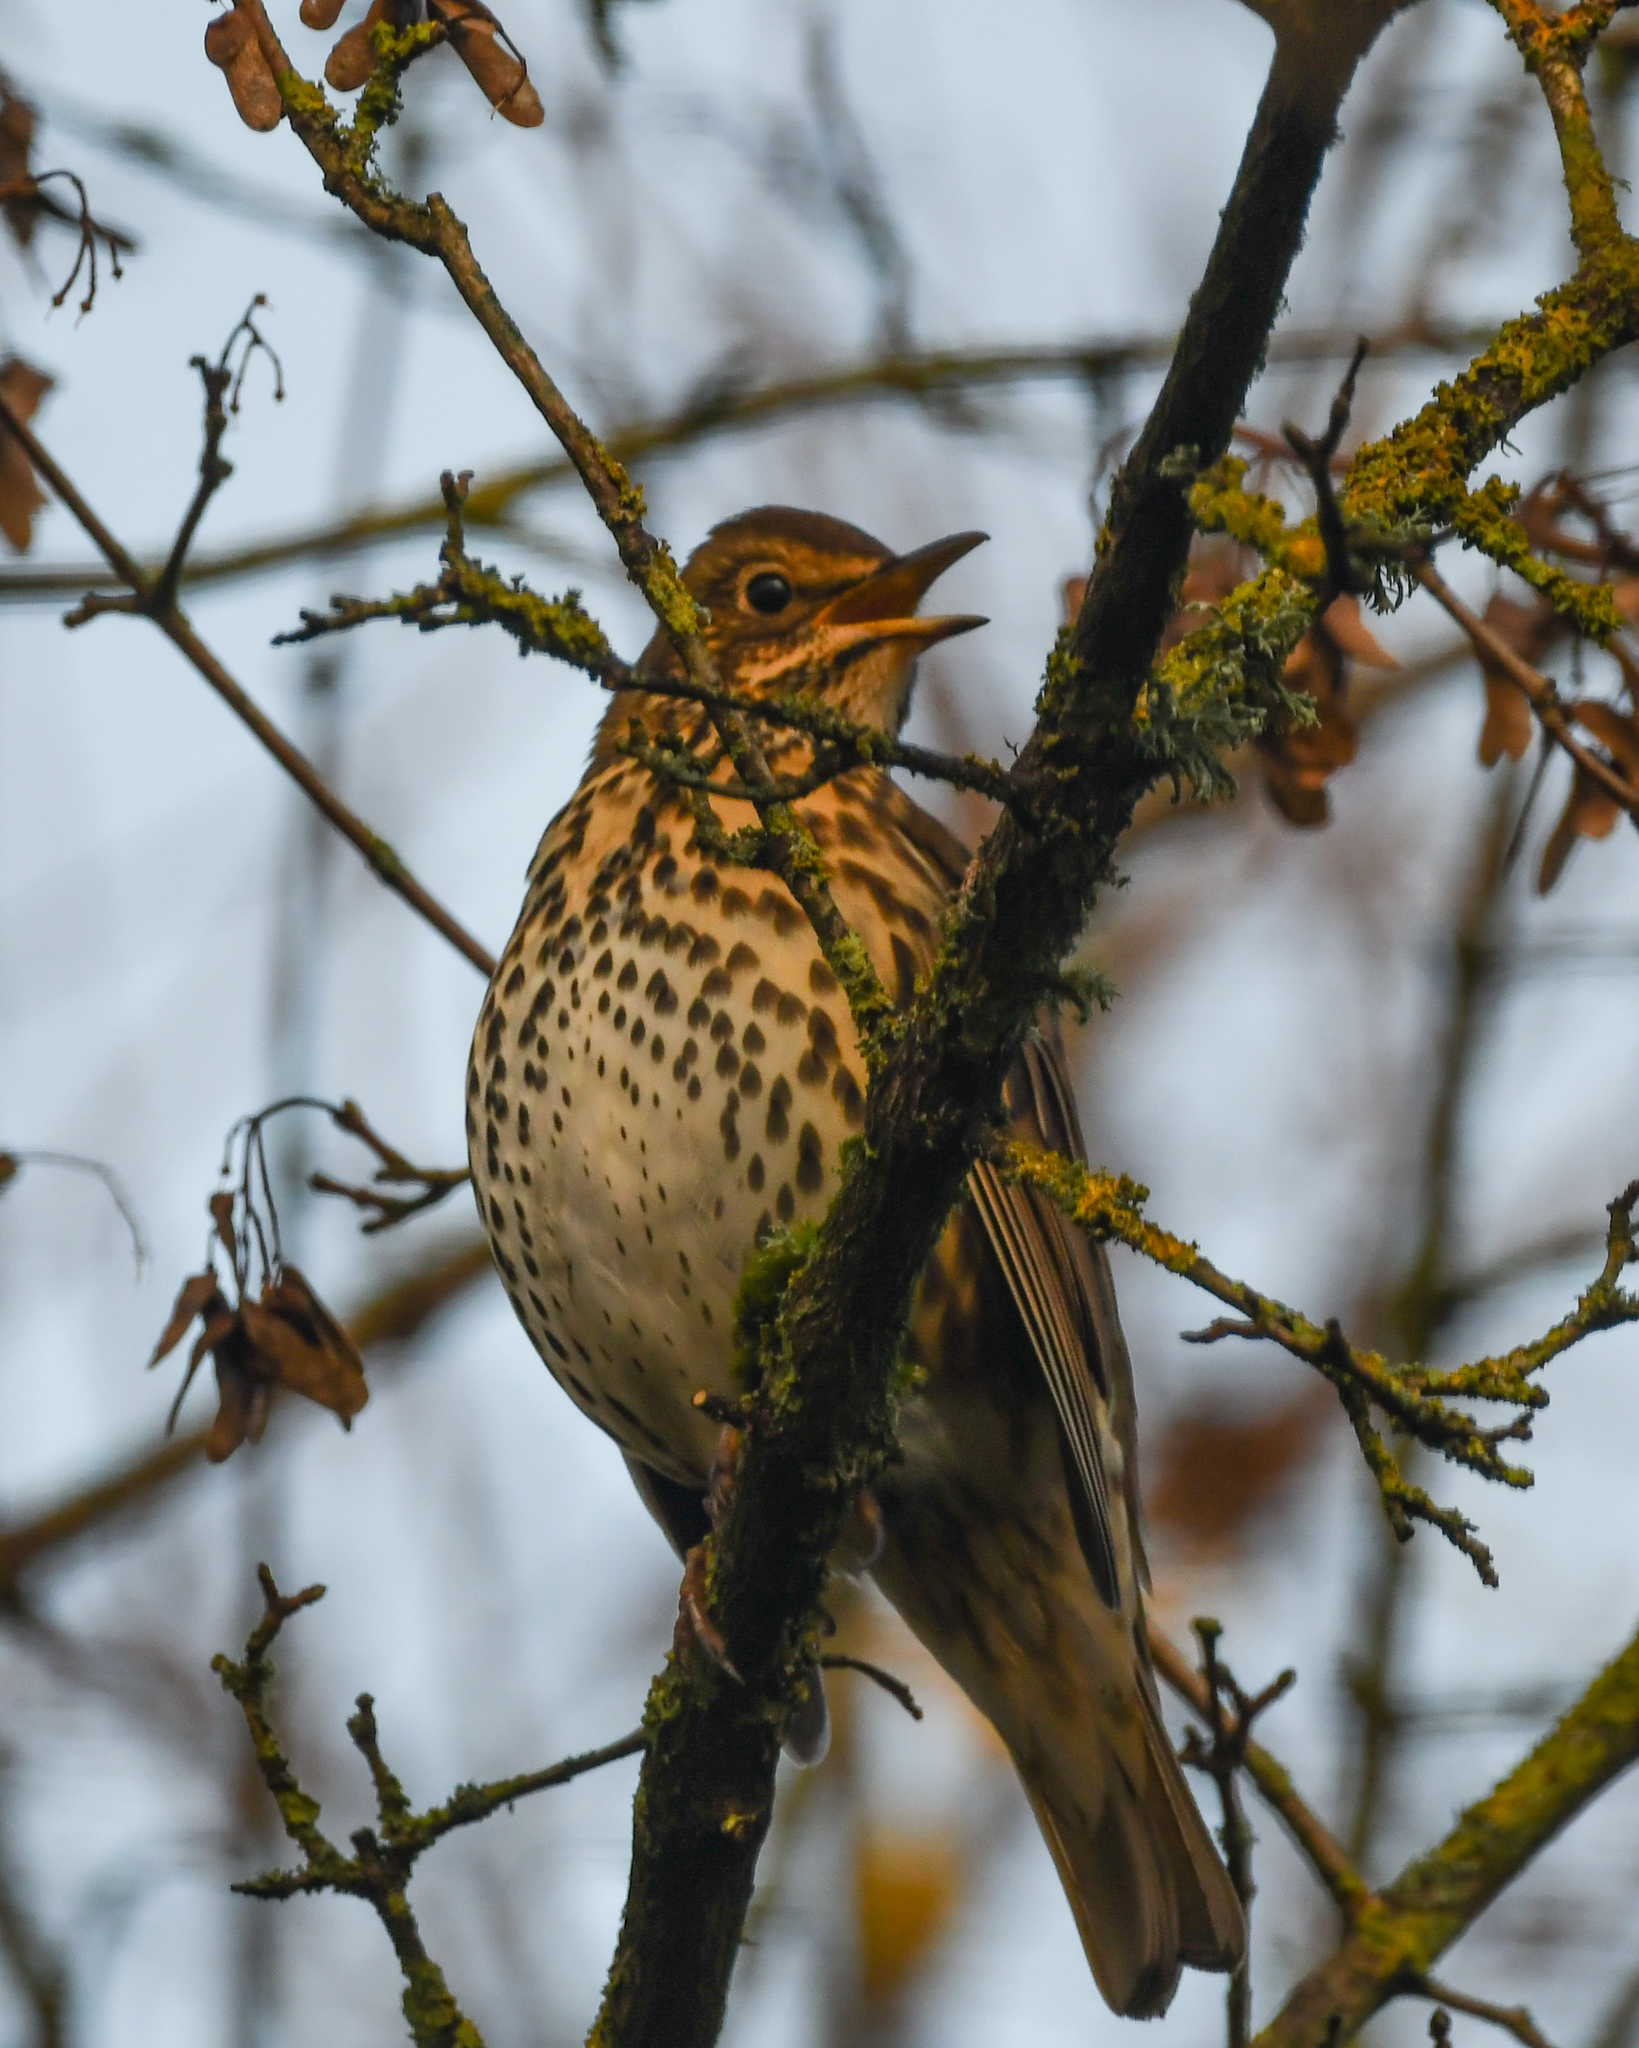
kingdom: Animalia
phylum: Chordata
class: Aves
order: Passeriformes
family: Turdidae
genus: Turdus
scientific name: Turdus philomelos
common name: Song thrush
